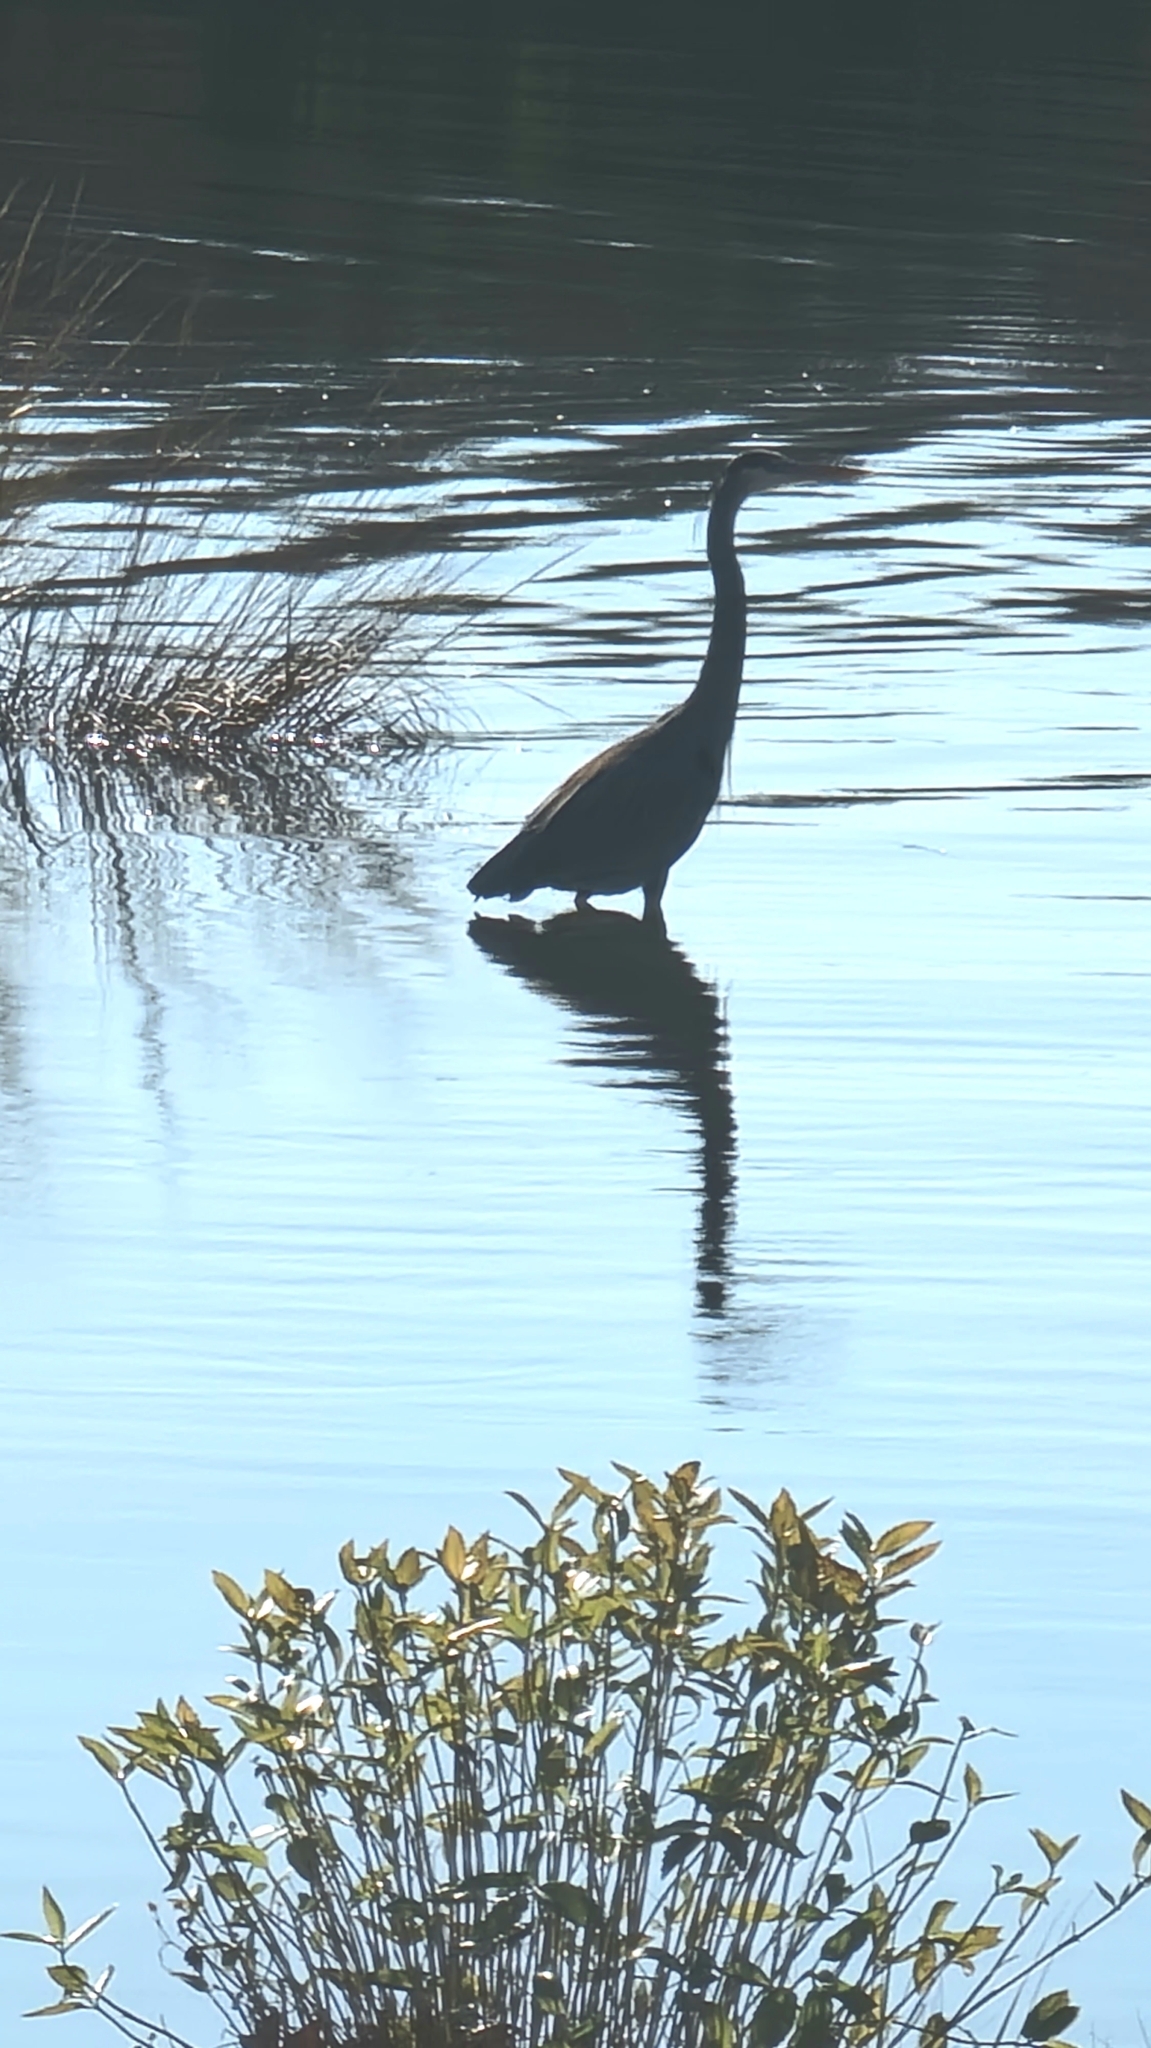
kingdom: Animalia
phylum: Chordata
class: Aves
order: Pelecaniformes
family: Ardeidae
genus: Ardea
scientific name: Ardea herodias
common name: Great blue heron
